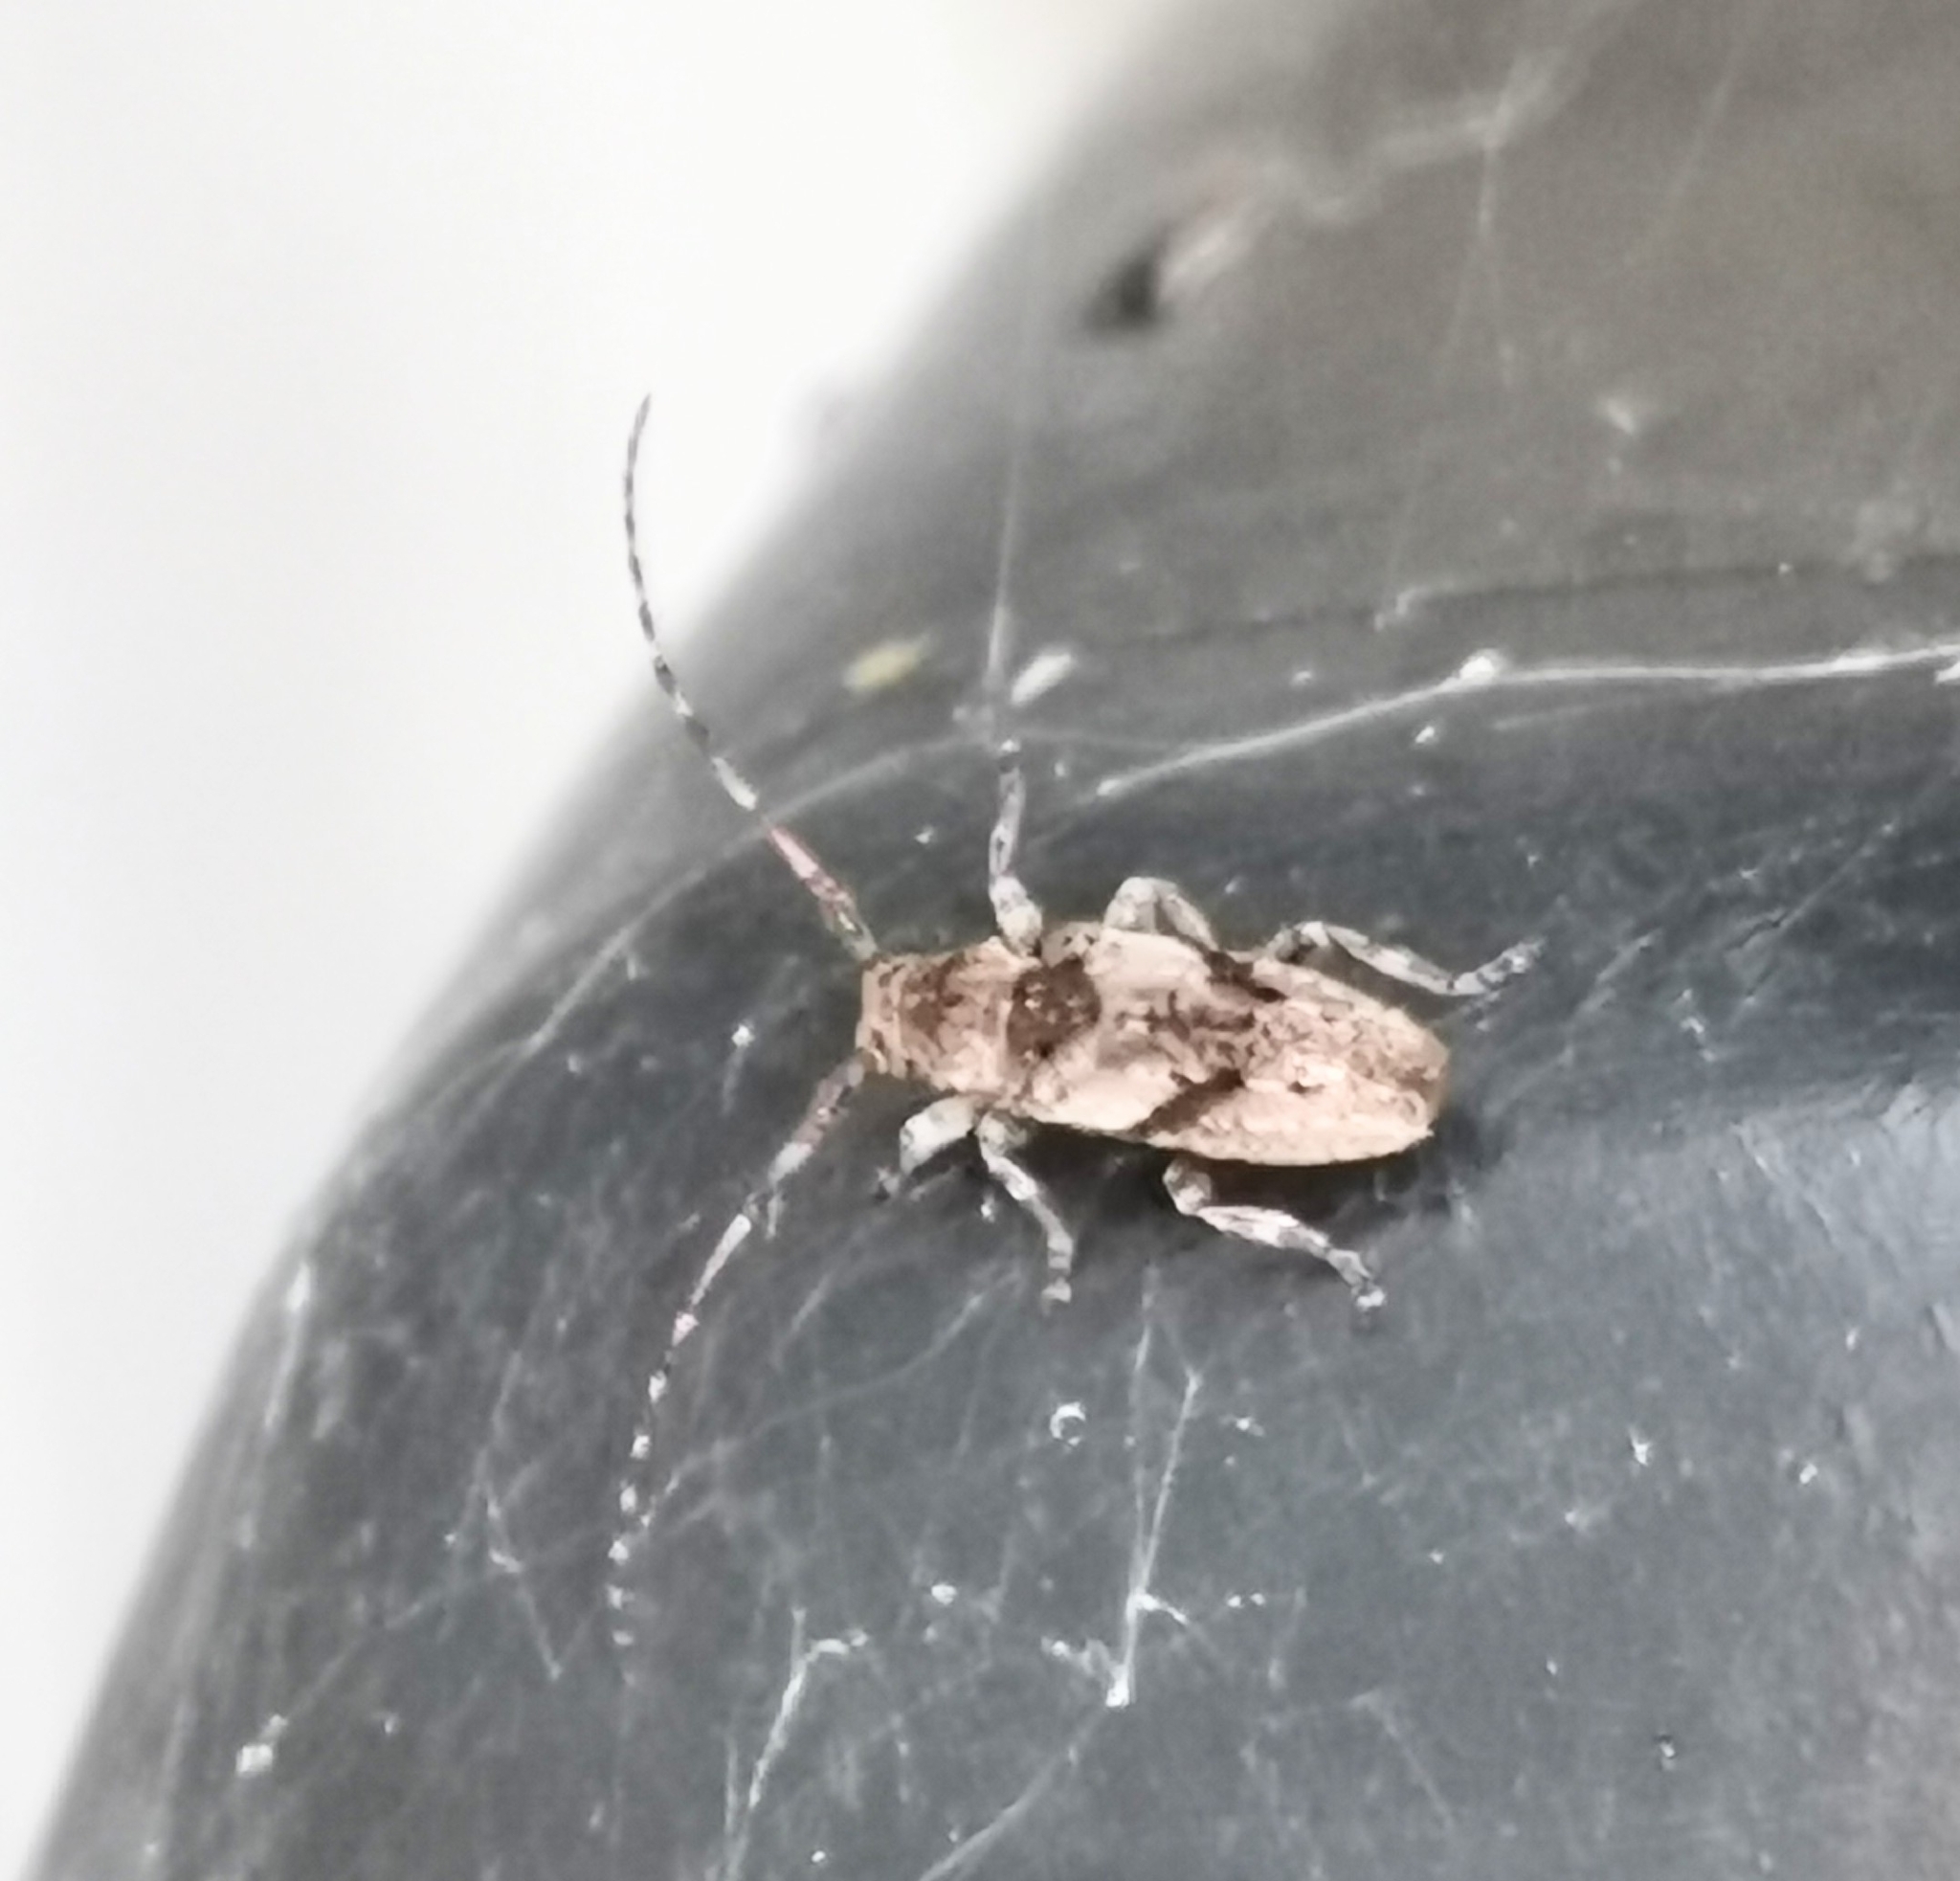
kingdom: Animalia
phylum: Arthropoda
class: Insecta
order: Coleoptera
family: Cerambycidae
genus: Pogonocherus
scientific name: Pogonocherus decoratus
